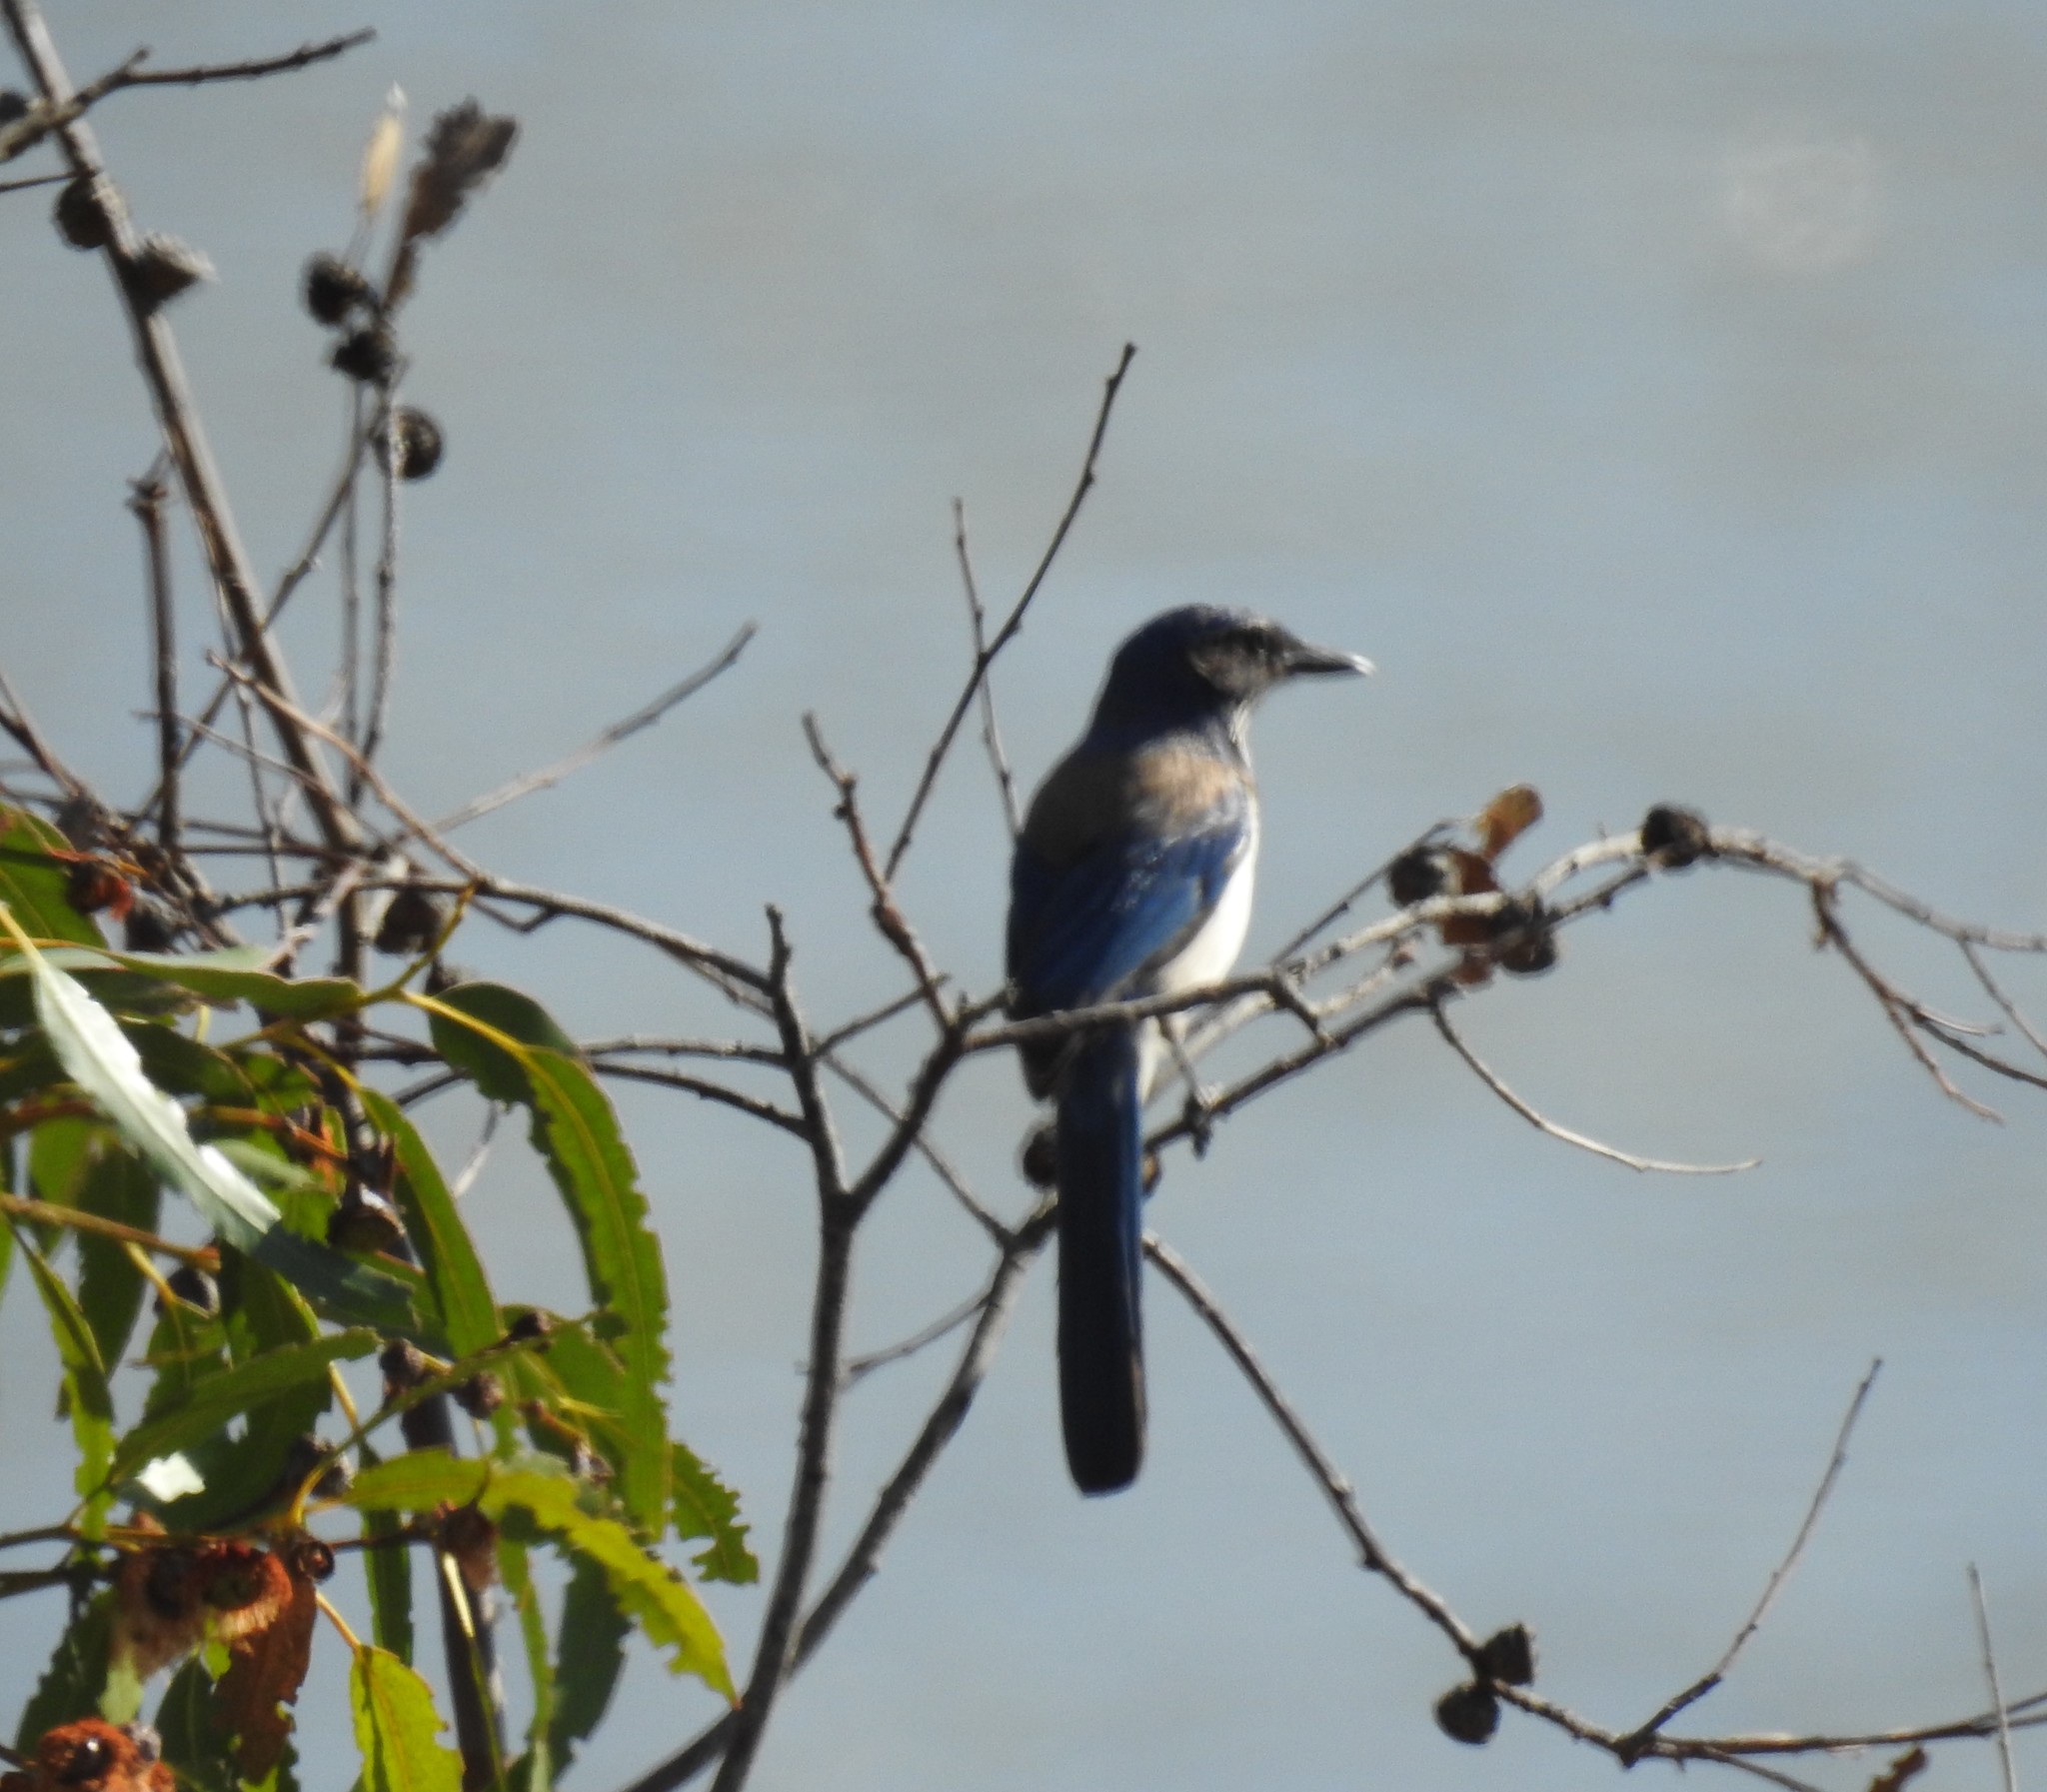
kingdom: Animalia
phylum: Chordata
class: Aves
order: Passeriformes
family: Corvidae
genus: Aphelocoma
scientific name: Aphelocoma californica
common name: California scrub-jay
